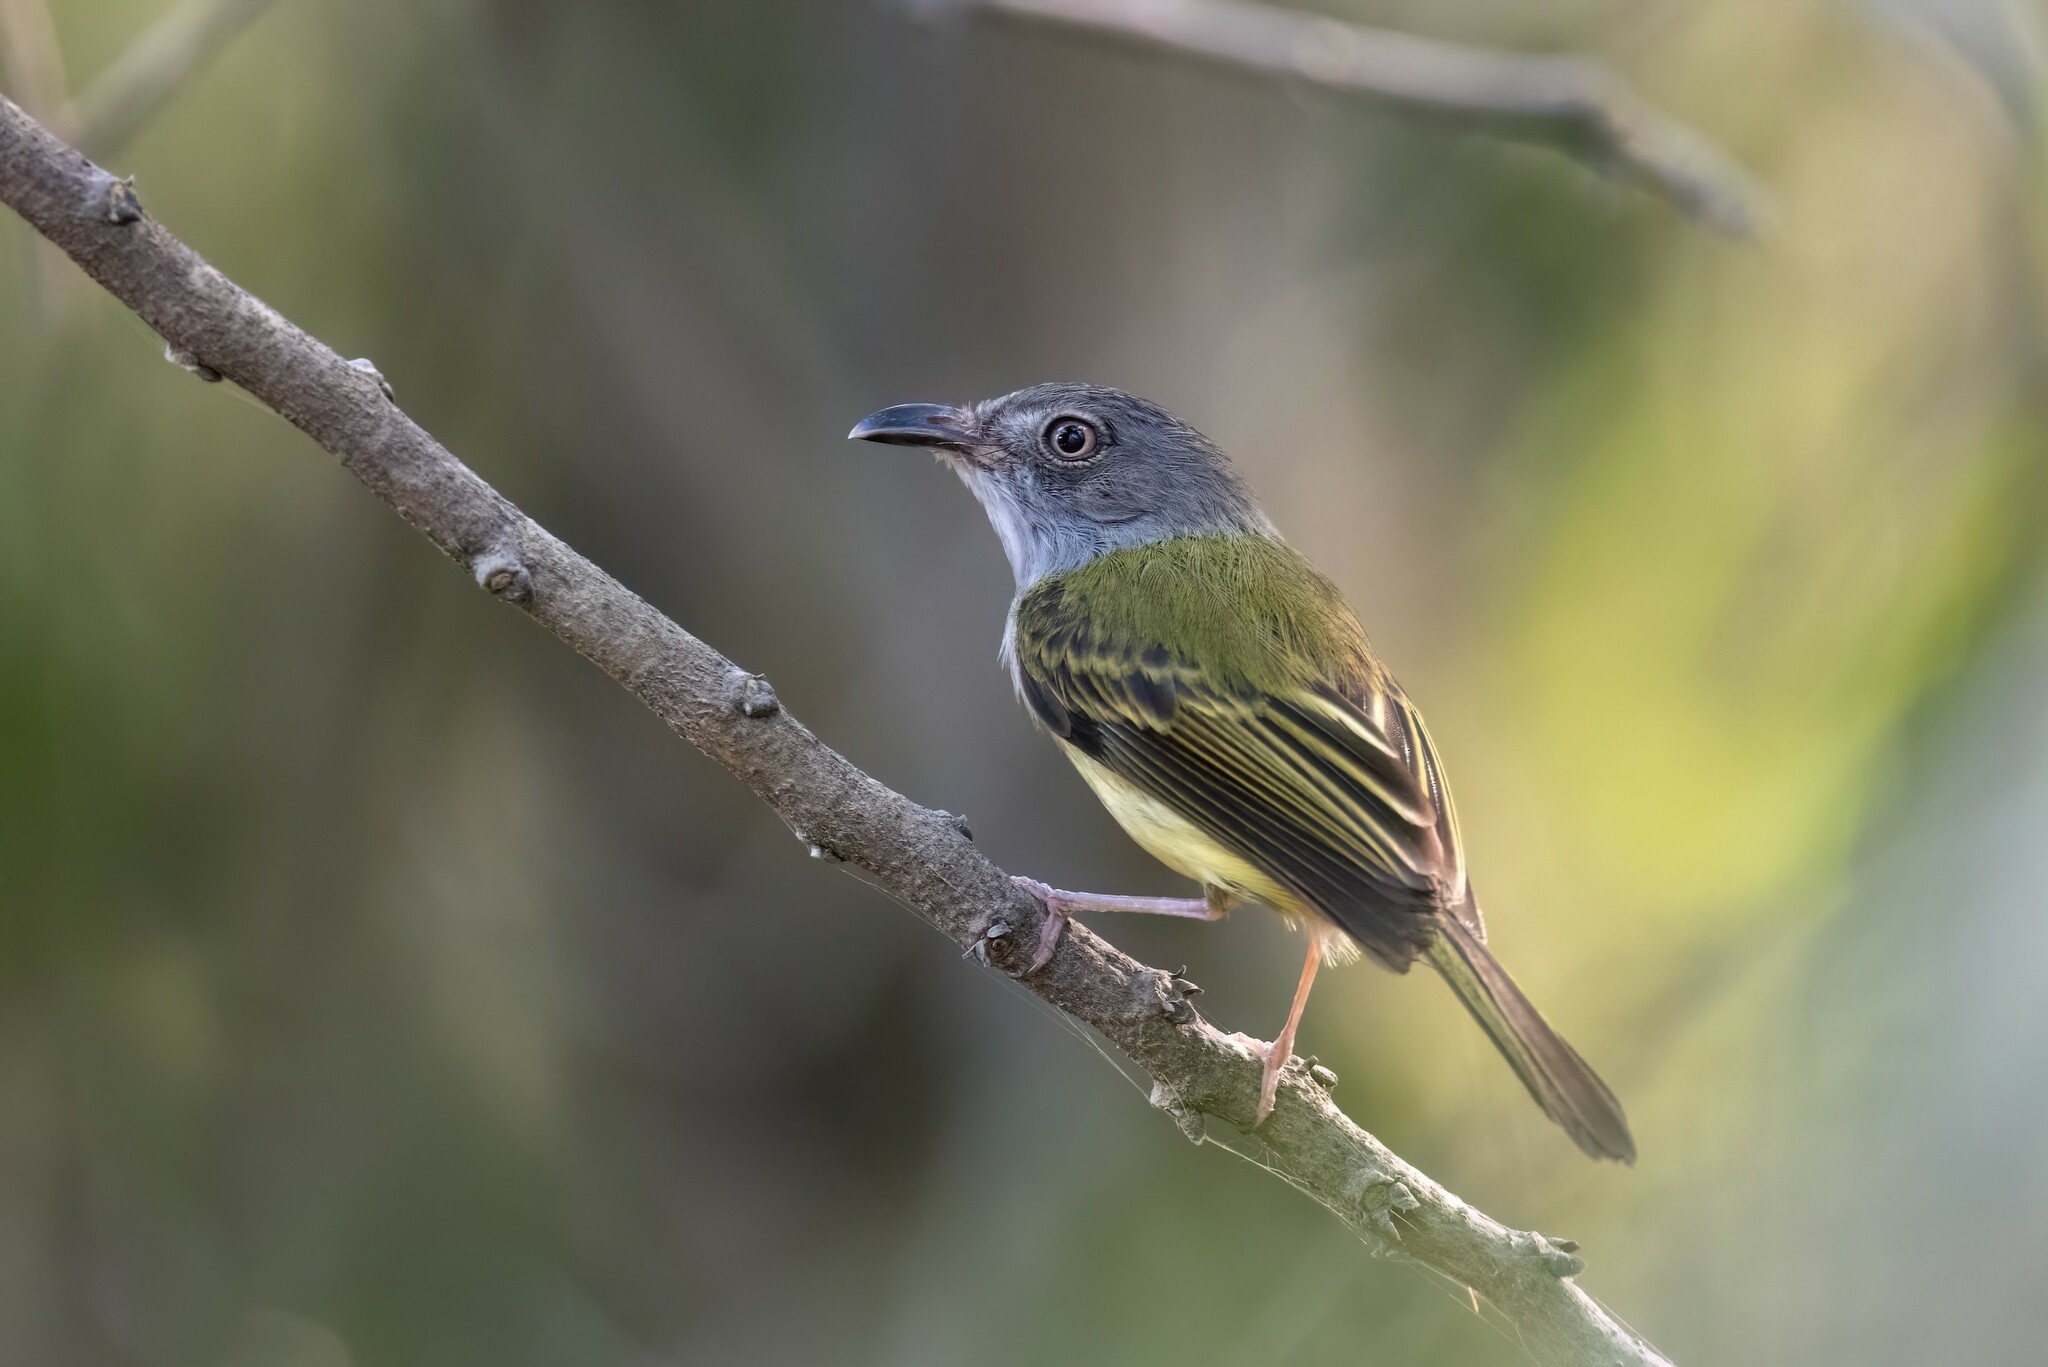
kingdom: Animalia
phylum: Chordata
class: Aves
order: Passeriformes
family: Tyrannidae
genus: Oncostoma
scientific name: Oncostoma cinereigulare
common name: Northern bentbill
